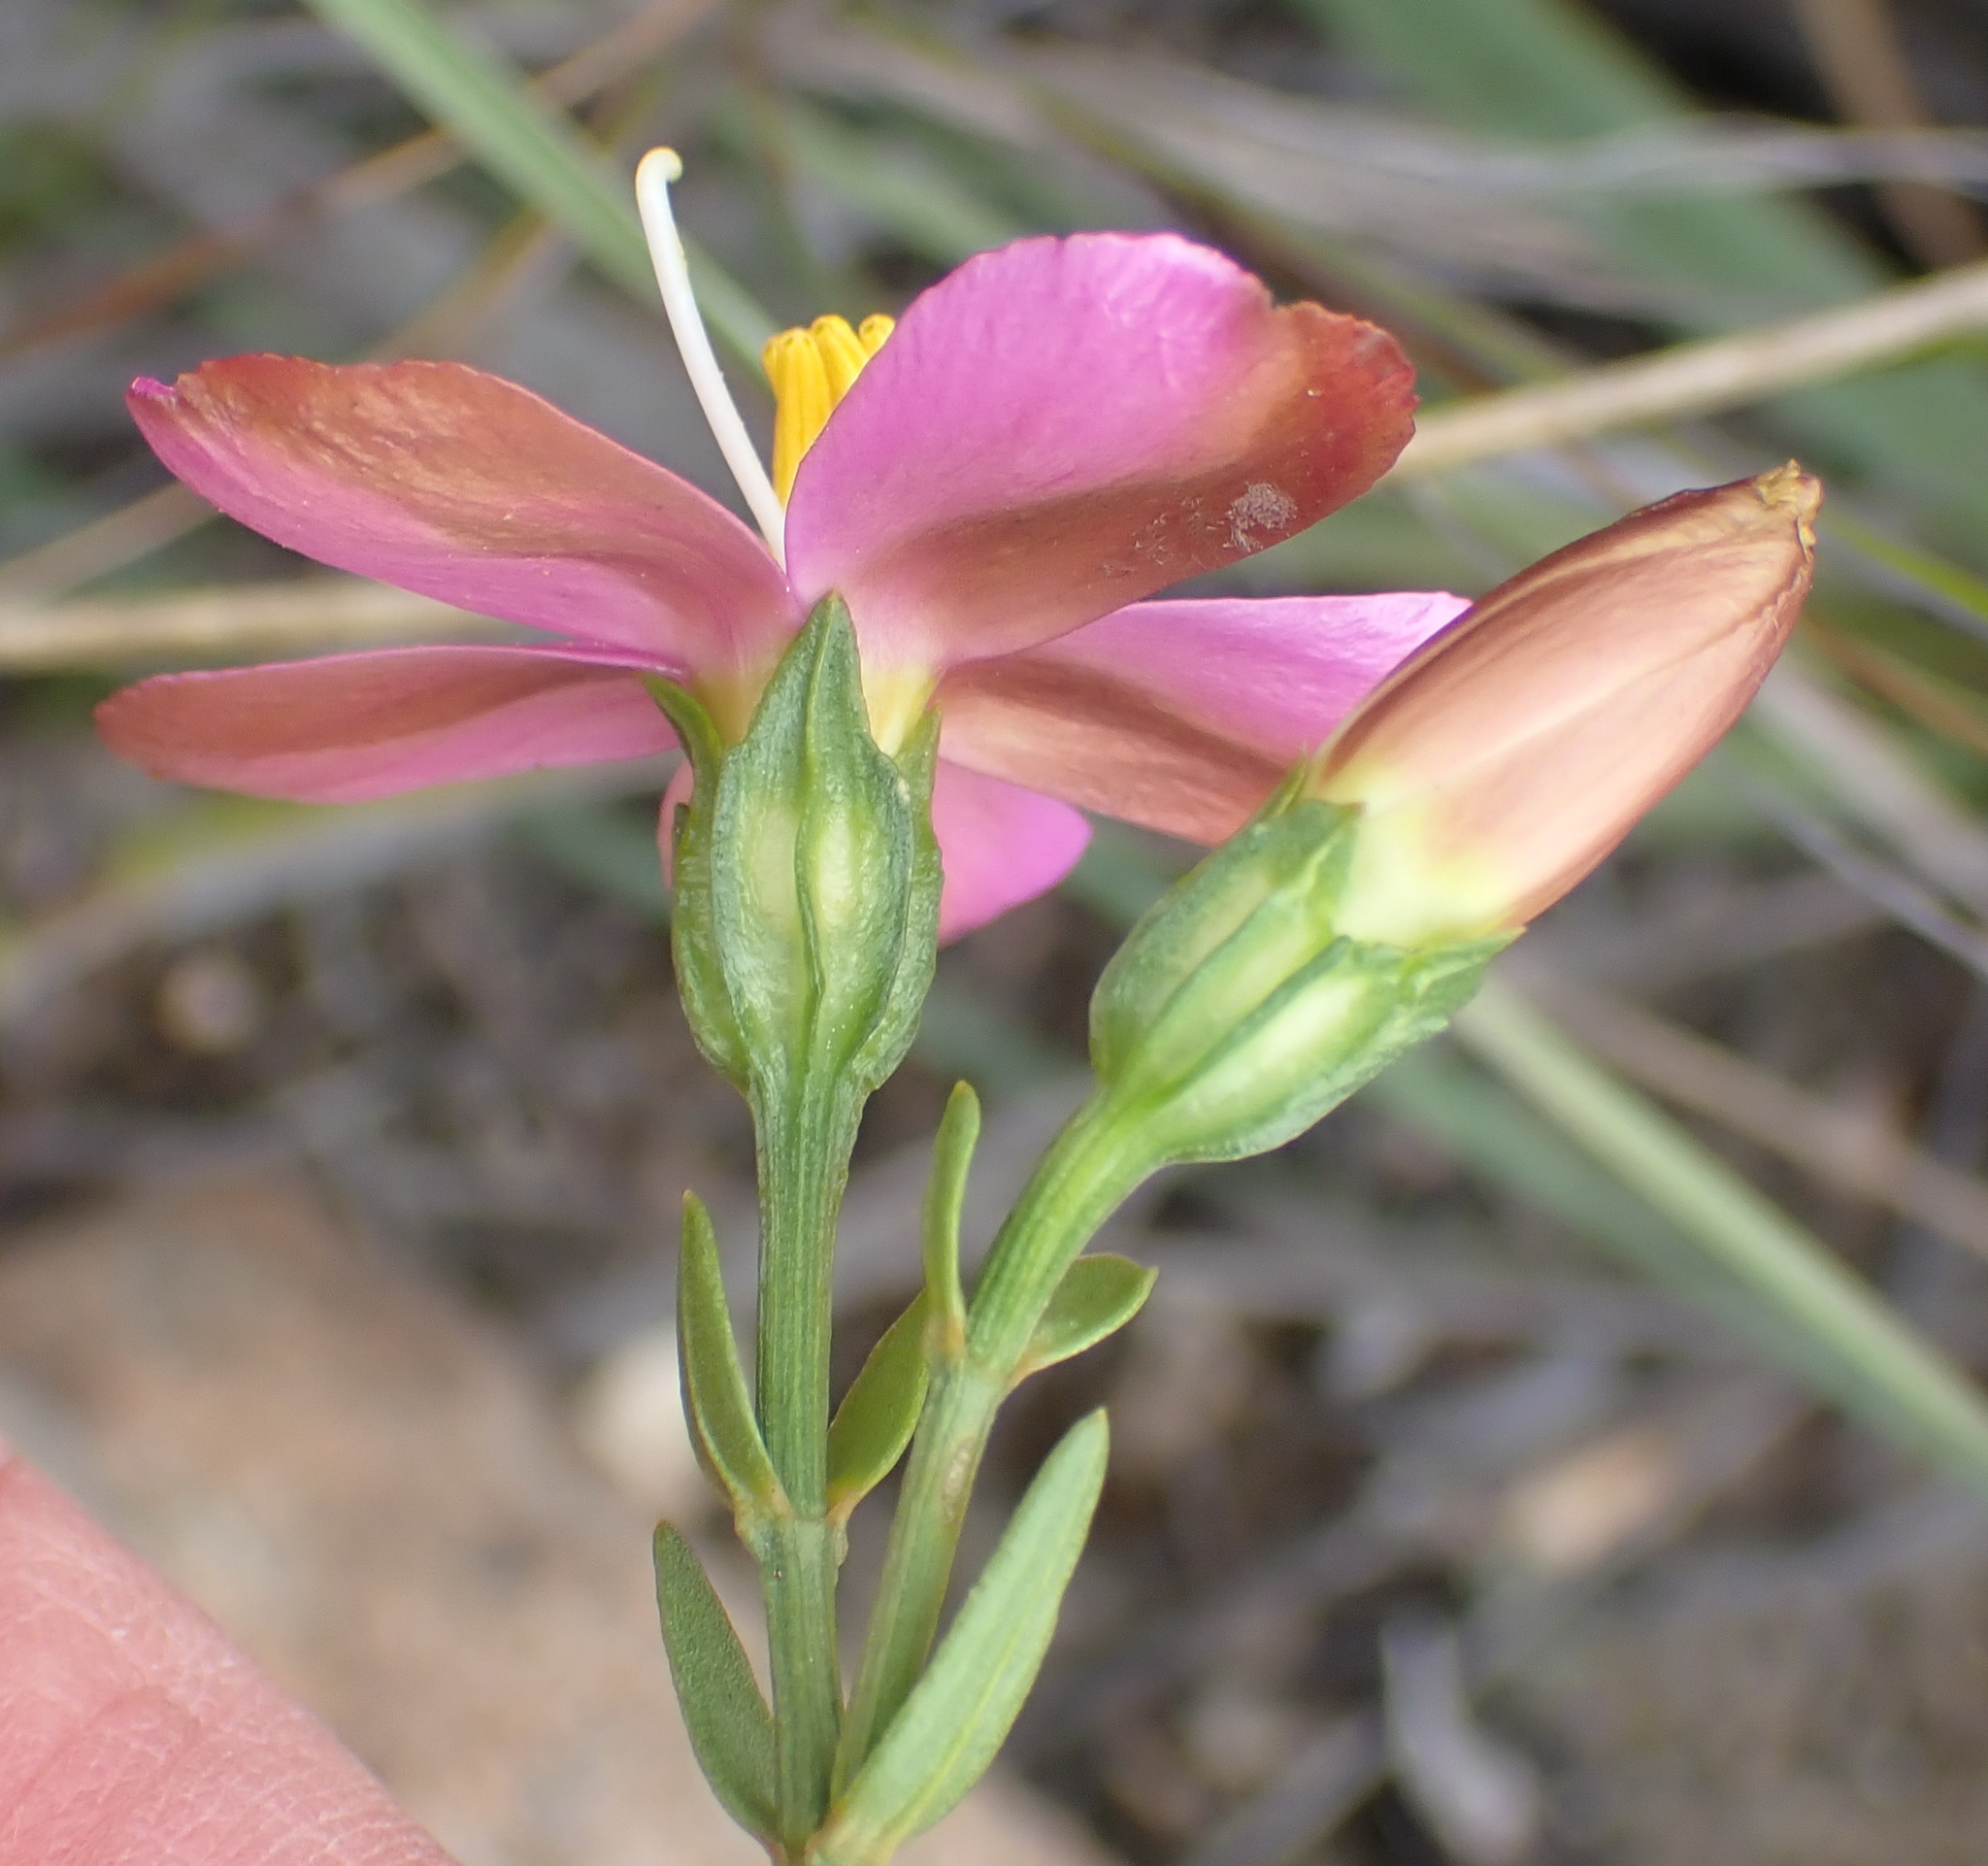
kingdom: Plantae
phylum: Tracheophyta
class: Magnoliopsida
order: Gentianales
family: Gentianaceae
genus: Chironia
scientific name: Chironia linoides
